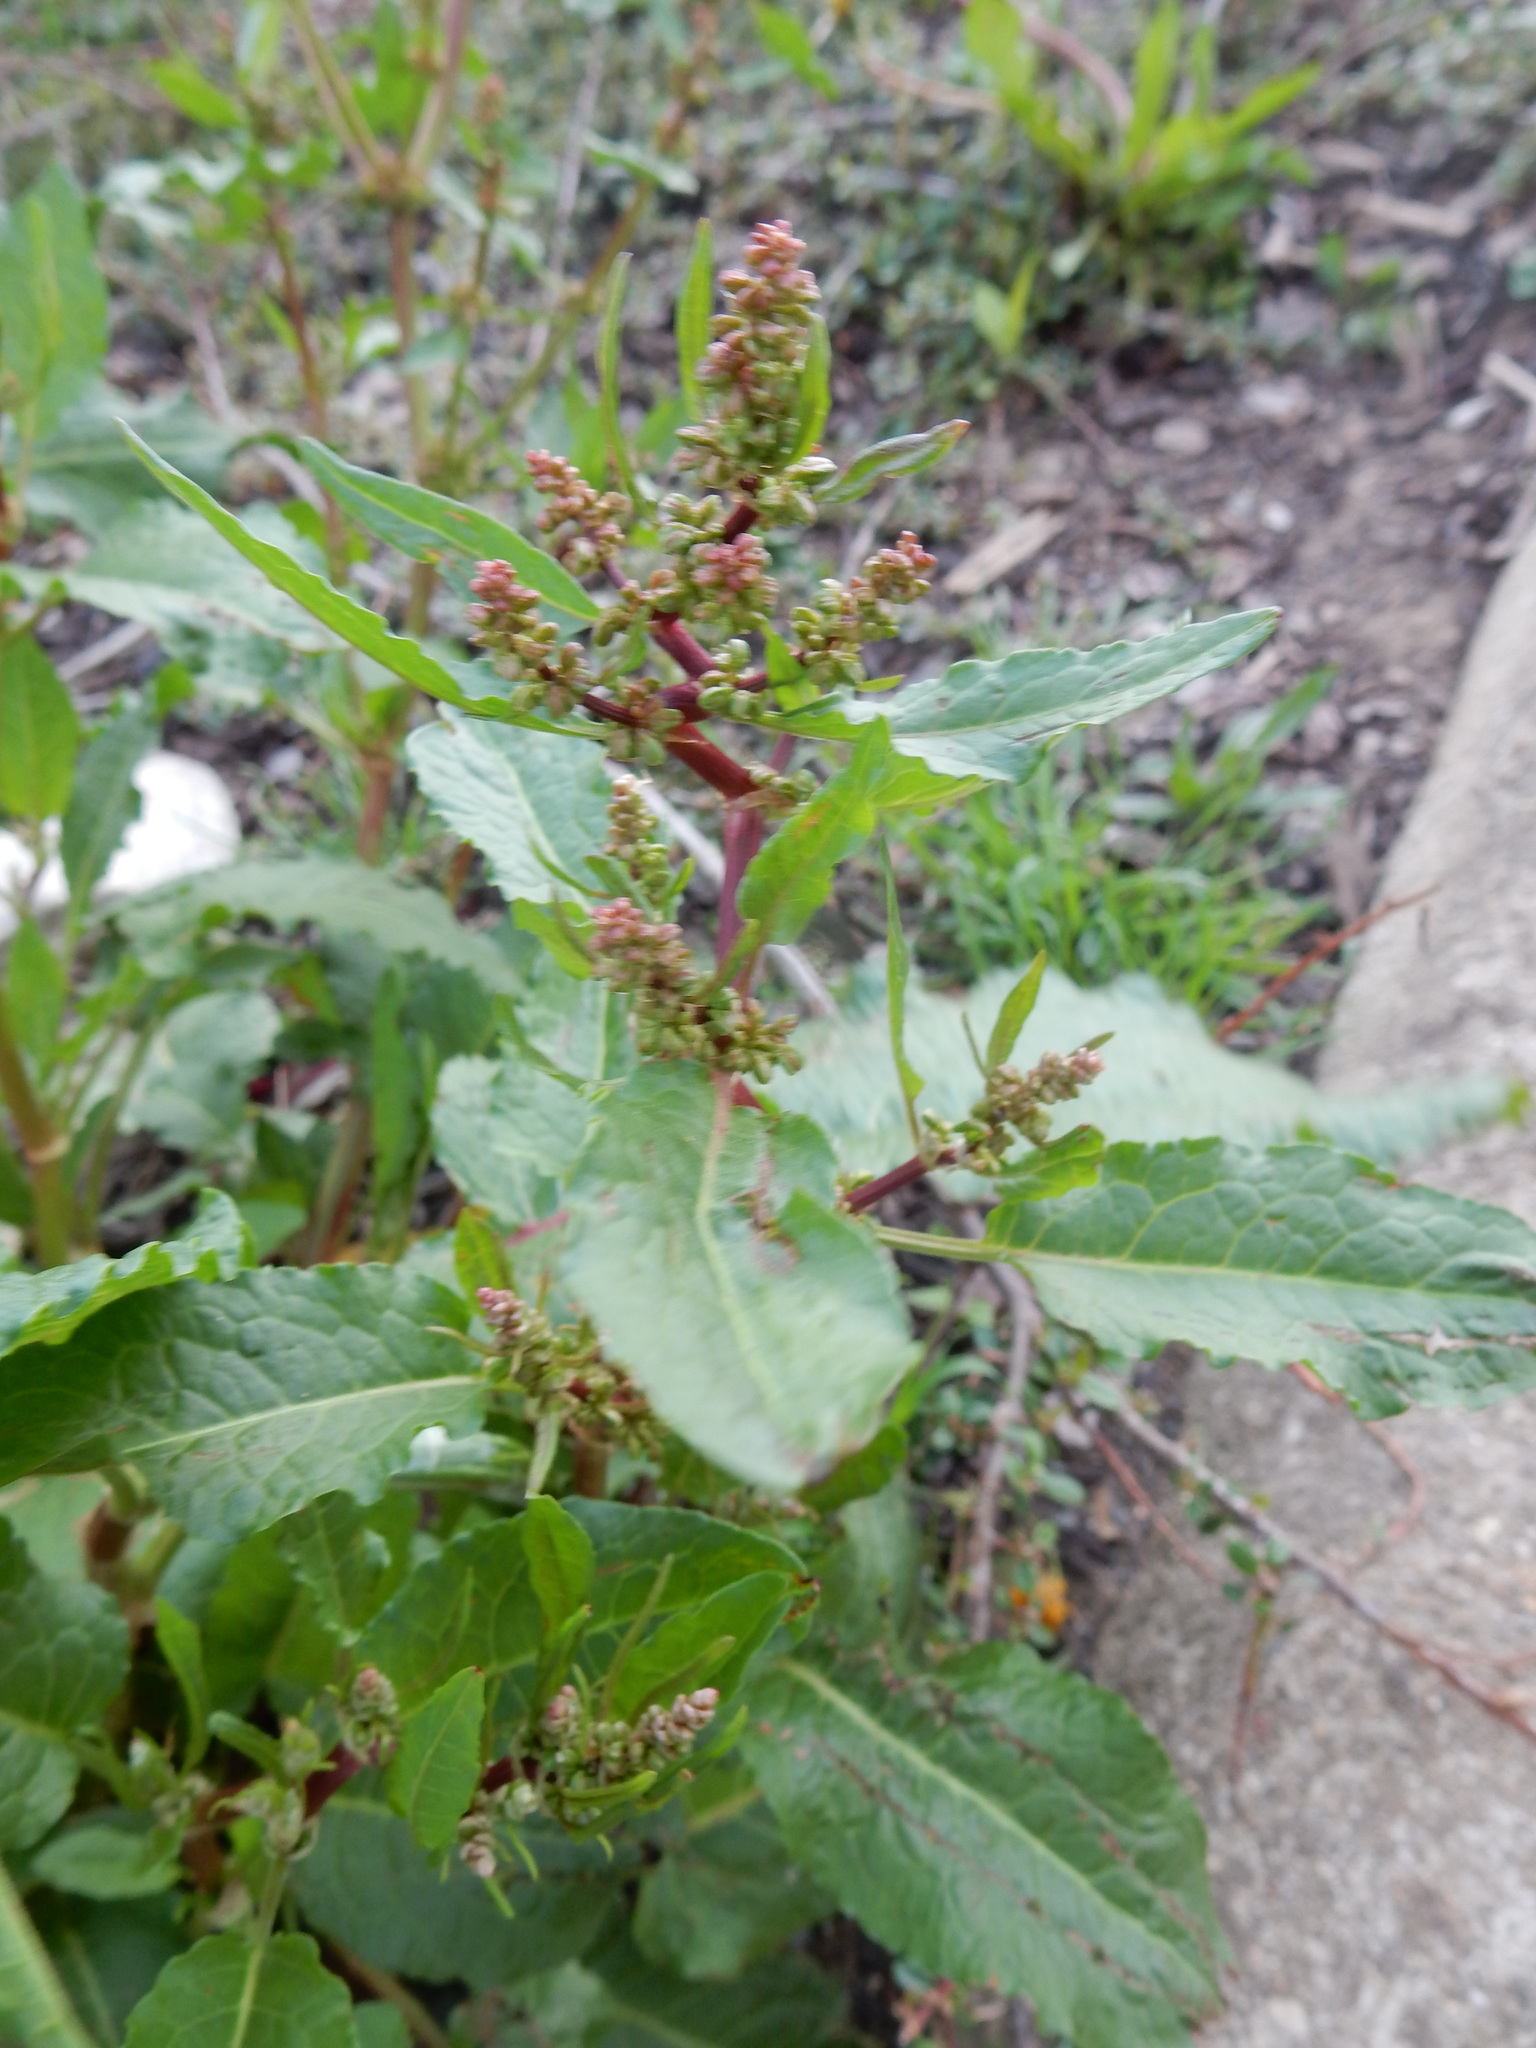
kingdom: Plantae
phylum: Tracheophyta
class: Magnoliopsida
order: Caryophyllales
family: Polygonaceae
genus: Rumex
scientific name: Rumex obtusifolius
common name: Bitter dock
